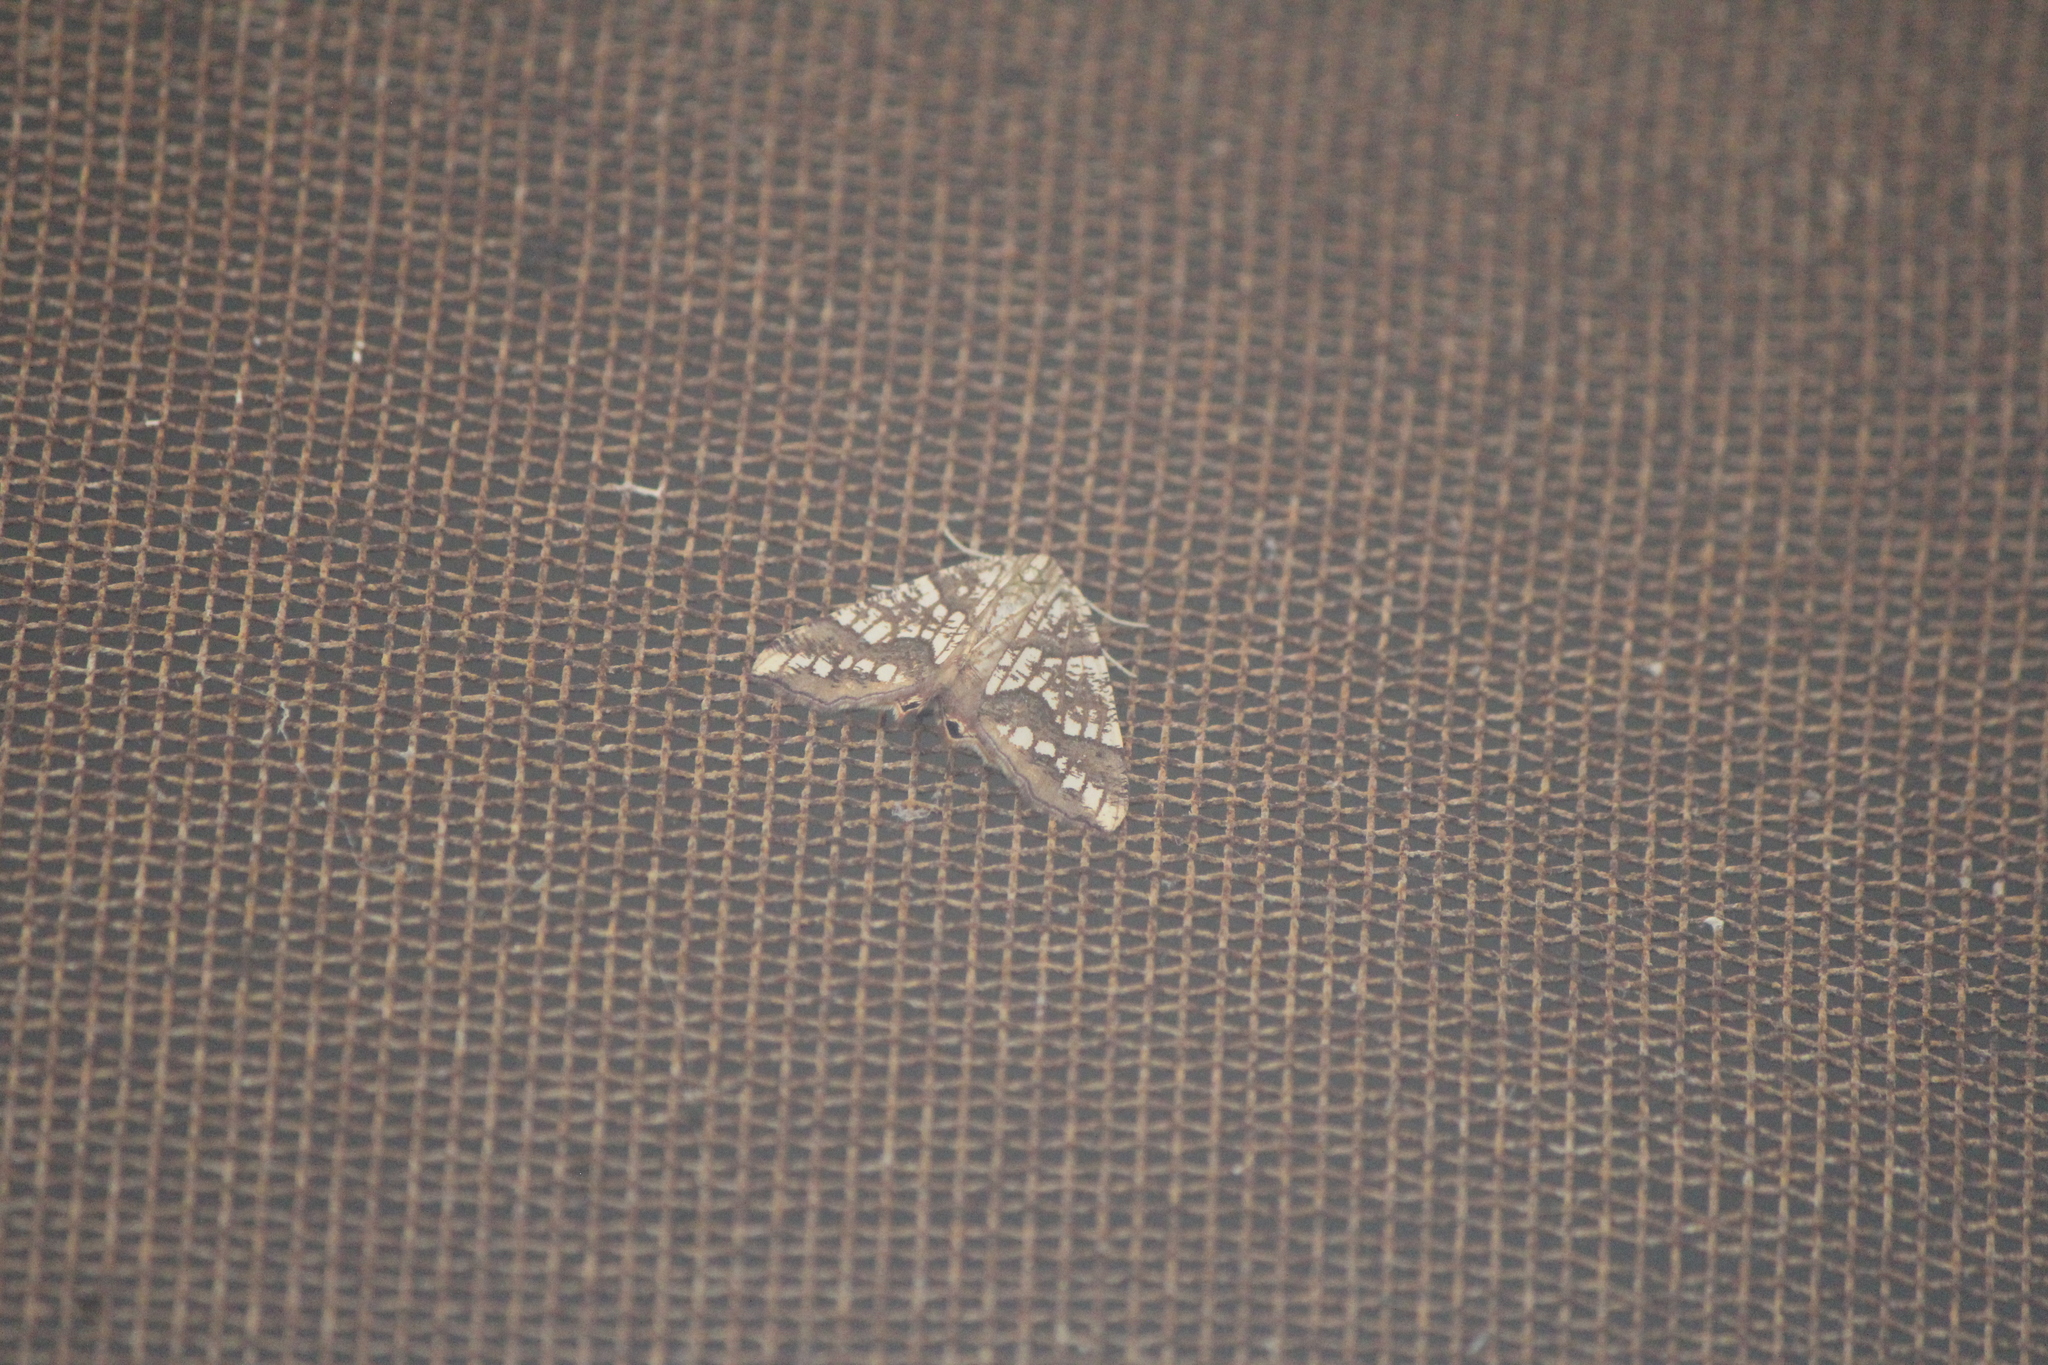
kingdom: Animalia
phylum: Arthropoda
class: Insecta
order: Lepidoptera
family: Geometridae
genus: Rindgeria
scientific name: Rindgeria ornata
